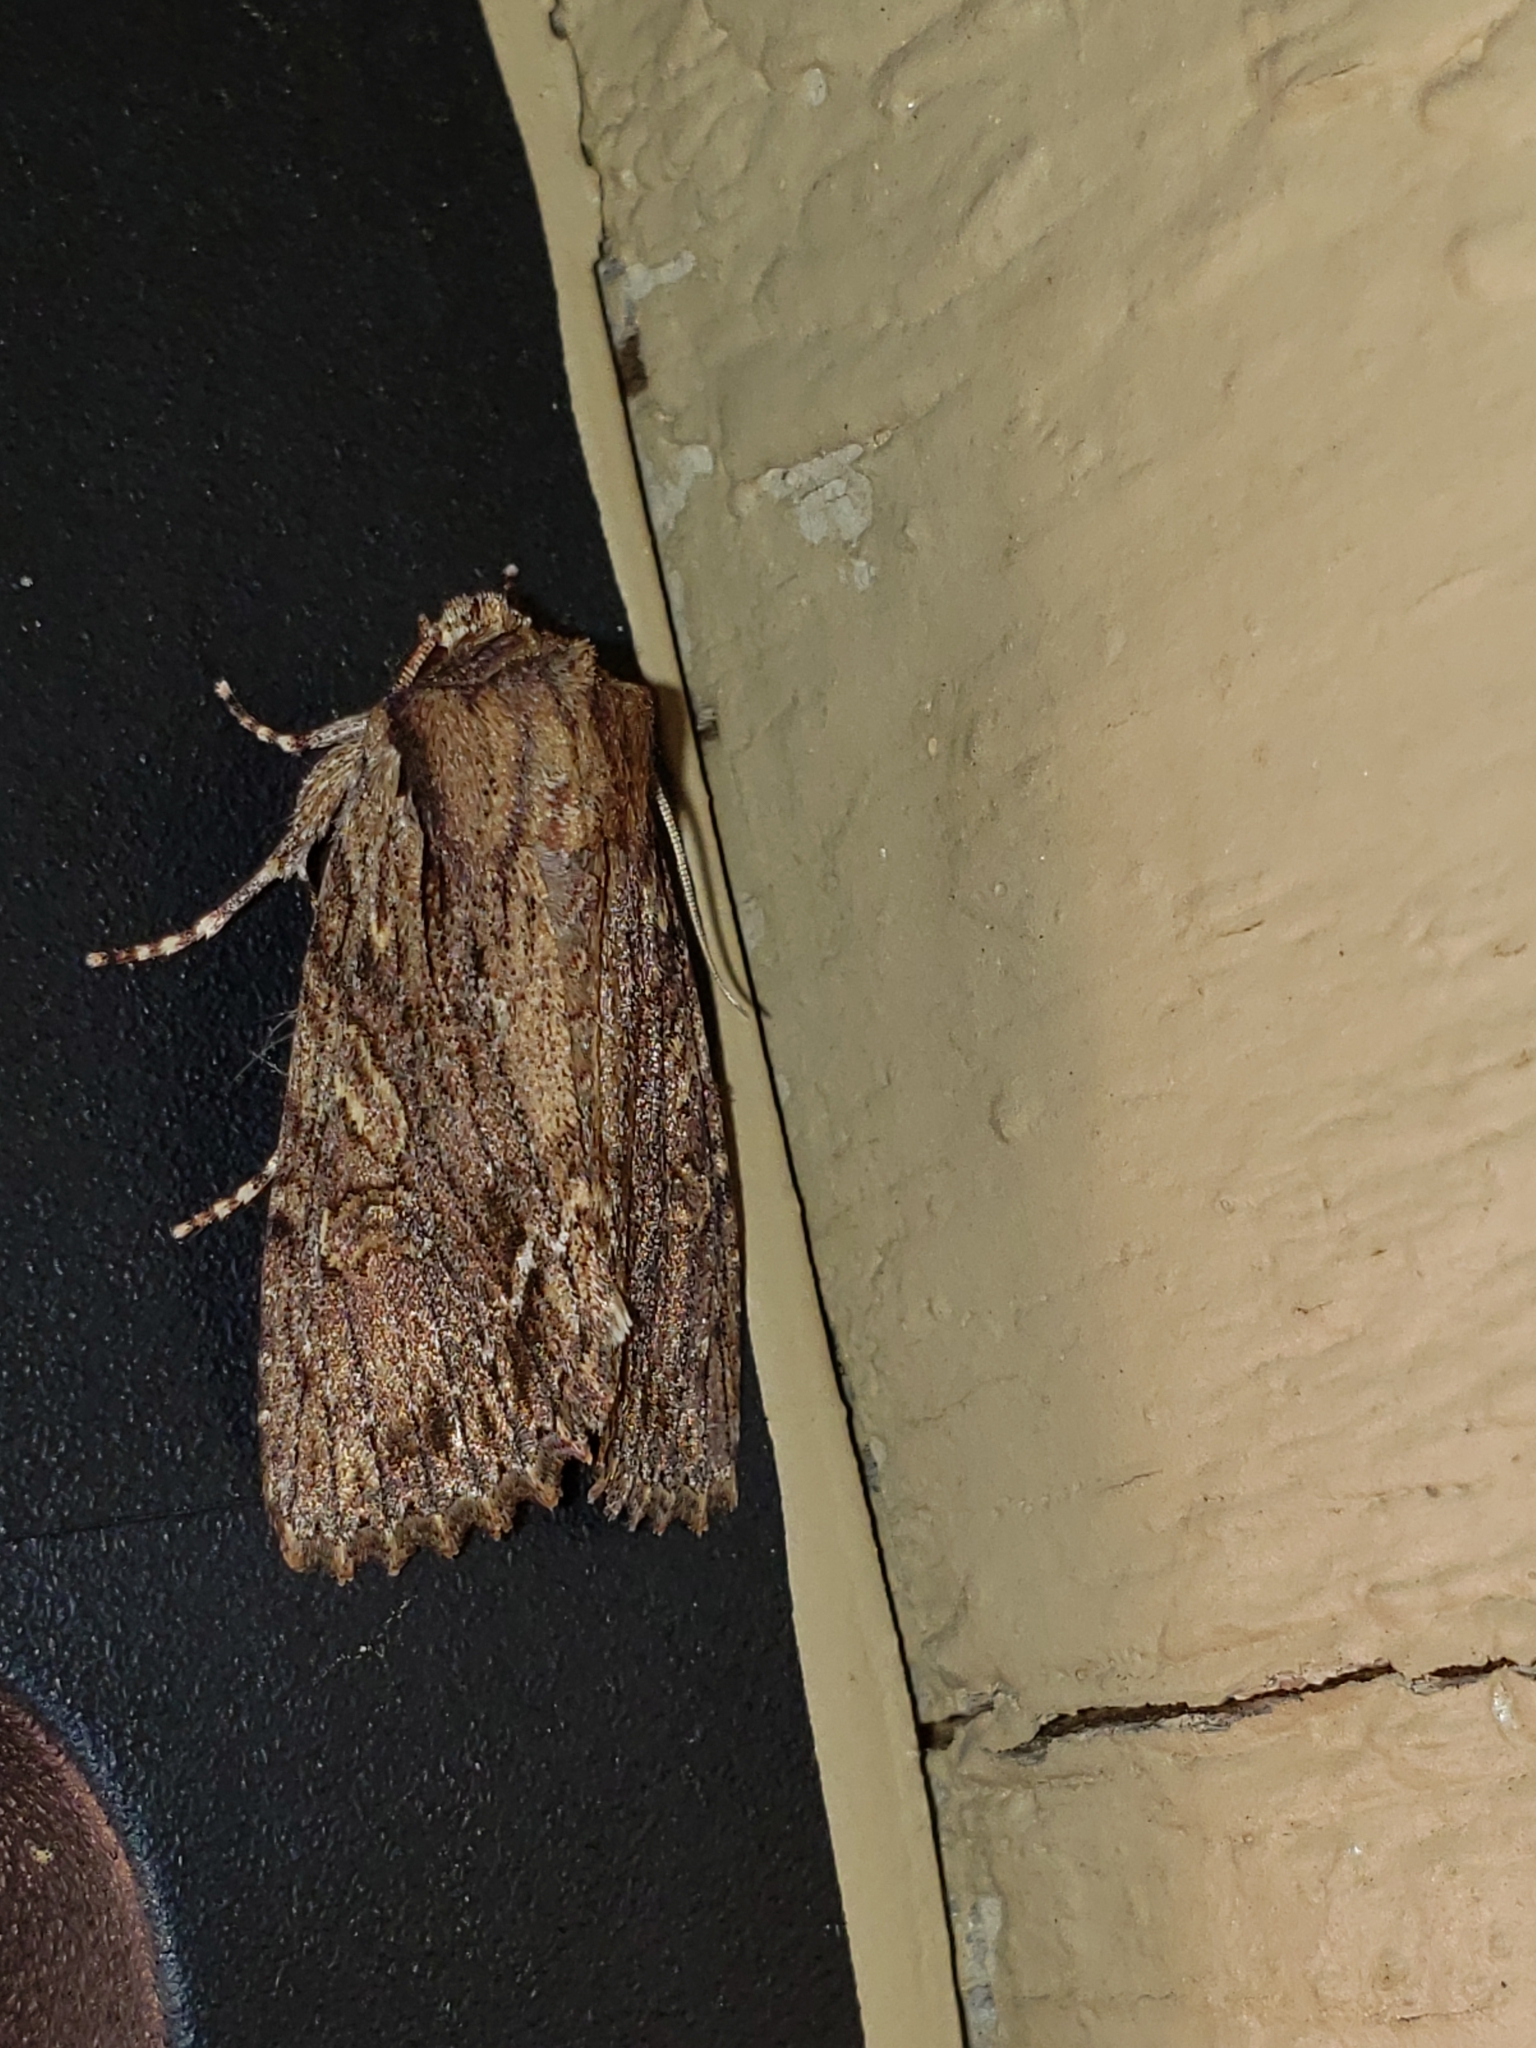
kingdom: Animalia
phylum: Arthropoda
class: Insecta
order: Lepidoptera
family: Noctuidae
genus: Achatia
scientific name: Achatia confusa
